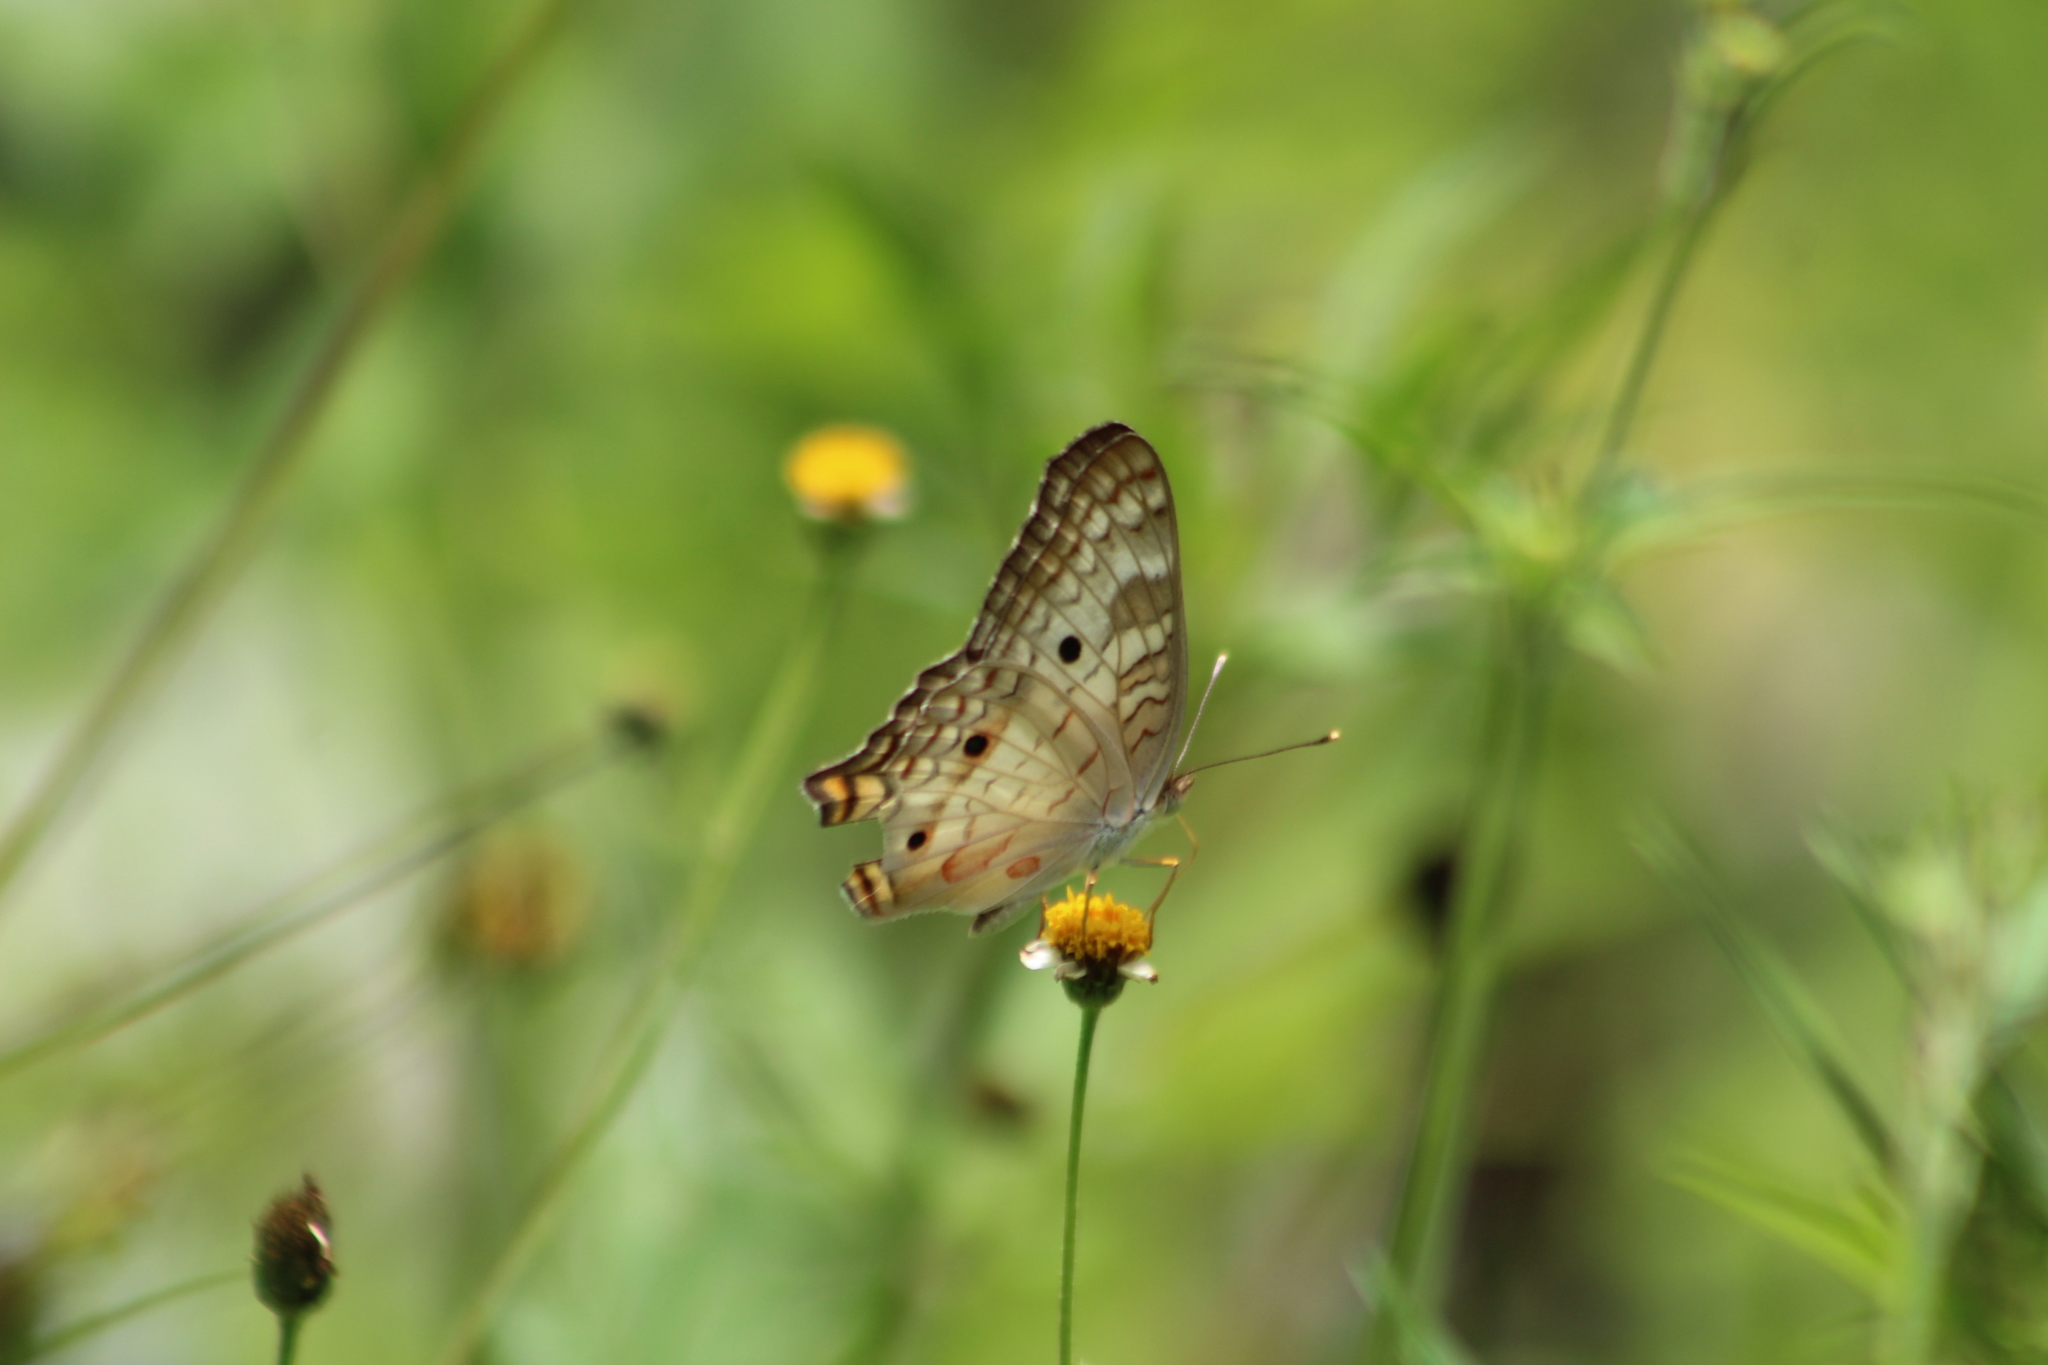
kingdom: Animalia
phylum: Arthropoda
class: Insecta
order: Lepidoptera
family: Nymphalidae
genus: Anartia
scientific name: Anartia jatrophae
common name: White peacock
